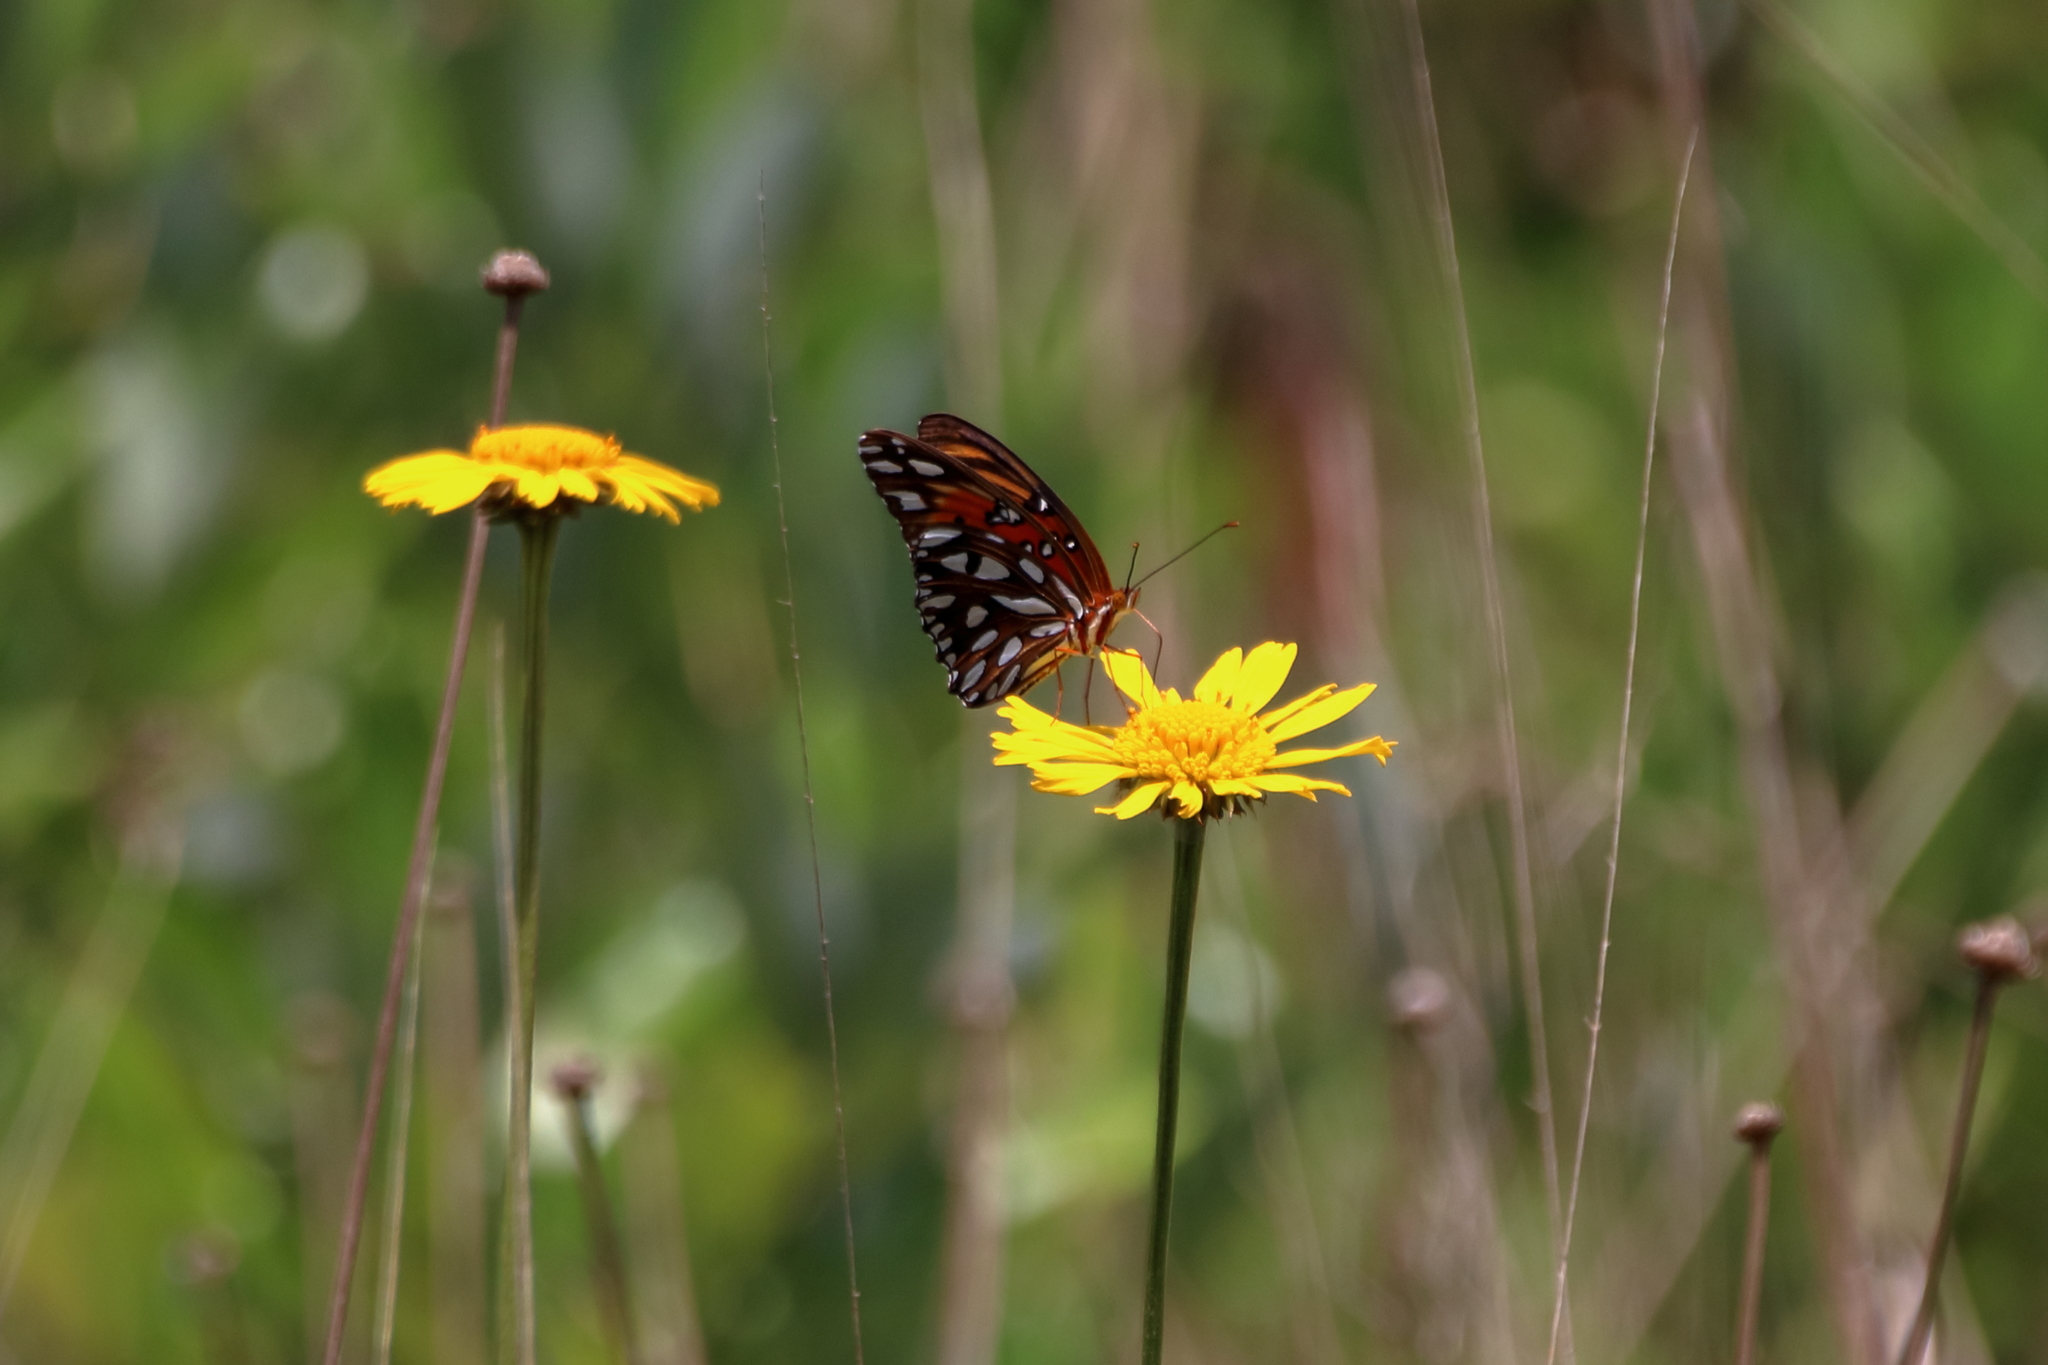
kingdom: Animalia
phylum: Arthropoda
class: Insecta
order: Lepidoptera
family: Nymphalidae
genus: Dione
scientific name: Dione vanillae
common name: Gulf fritillary
